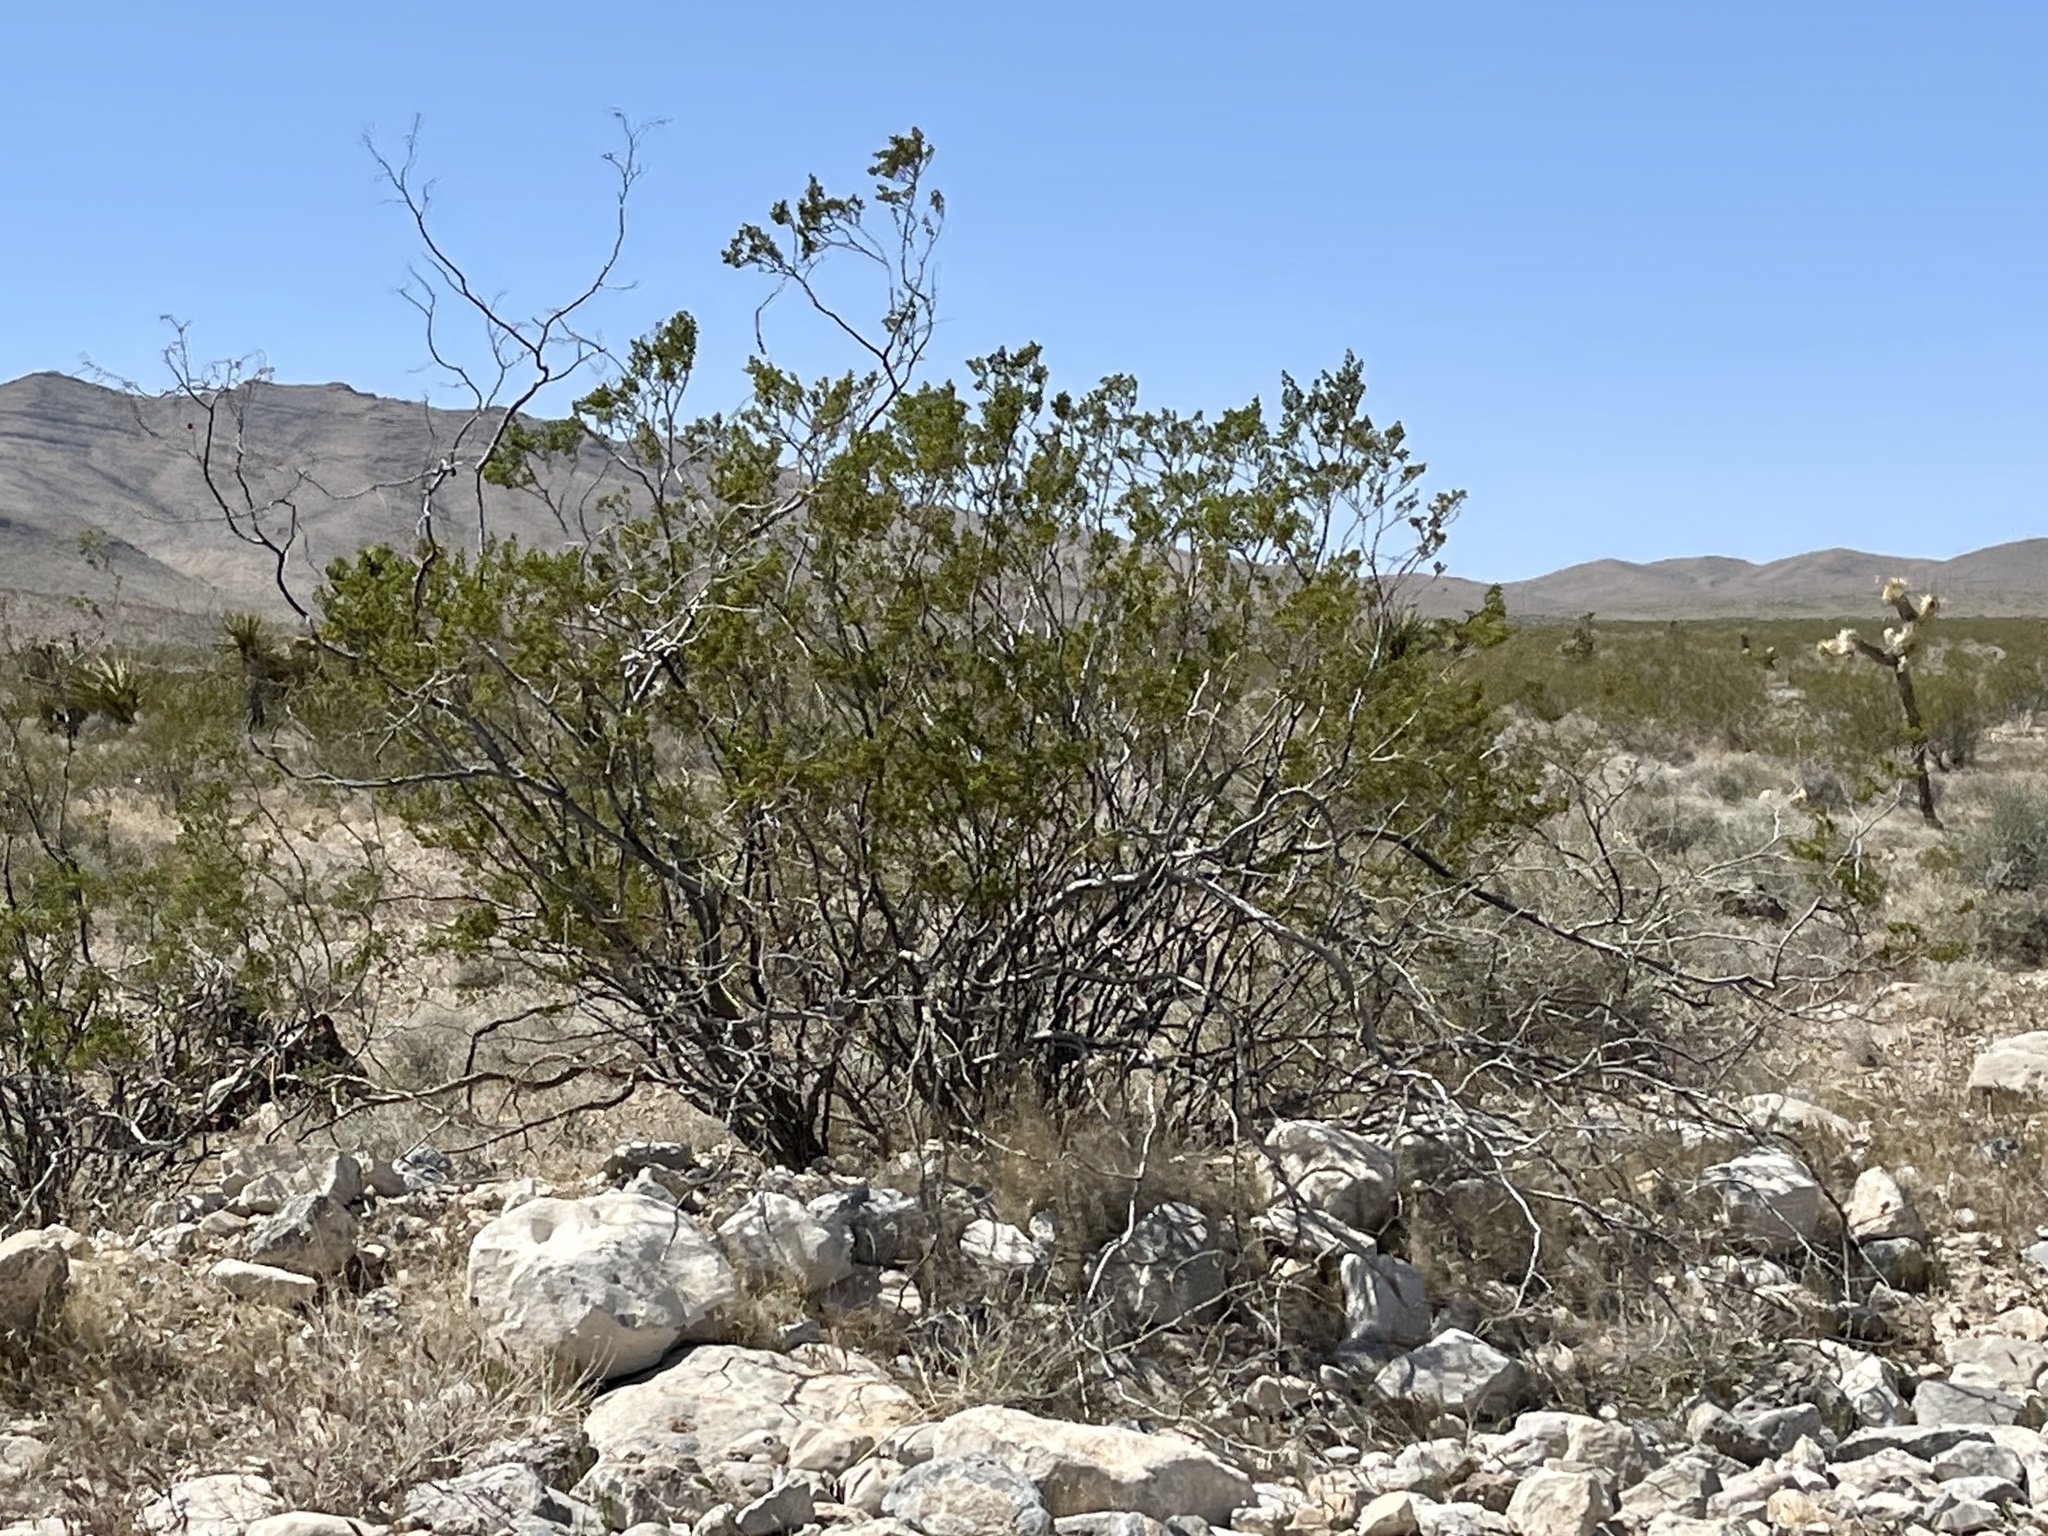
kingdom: Plantae
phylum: Tracheophyta
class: Magnoliopsida
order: Zygophyllales
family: Zygophyllaceae
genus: Larrea
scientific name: Larrea tridentata
